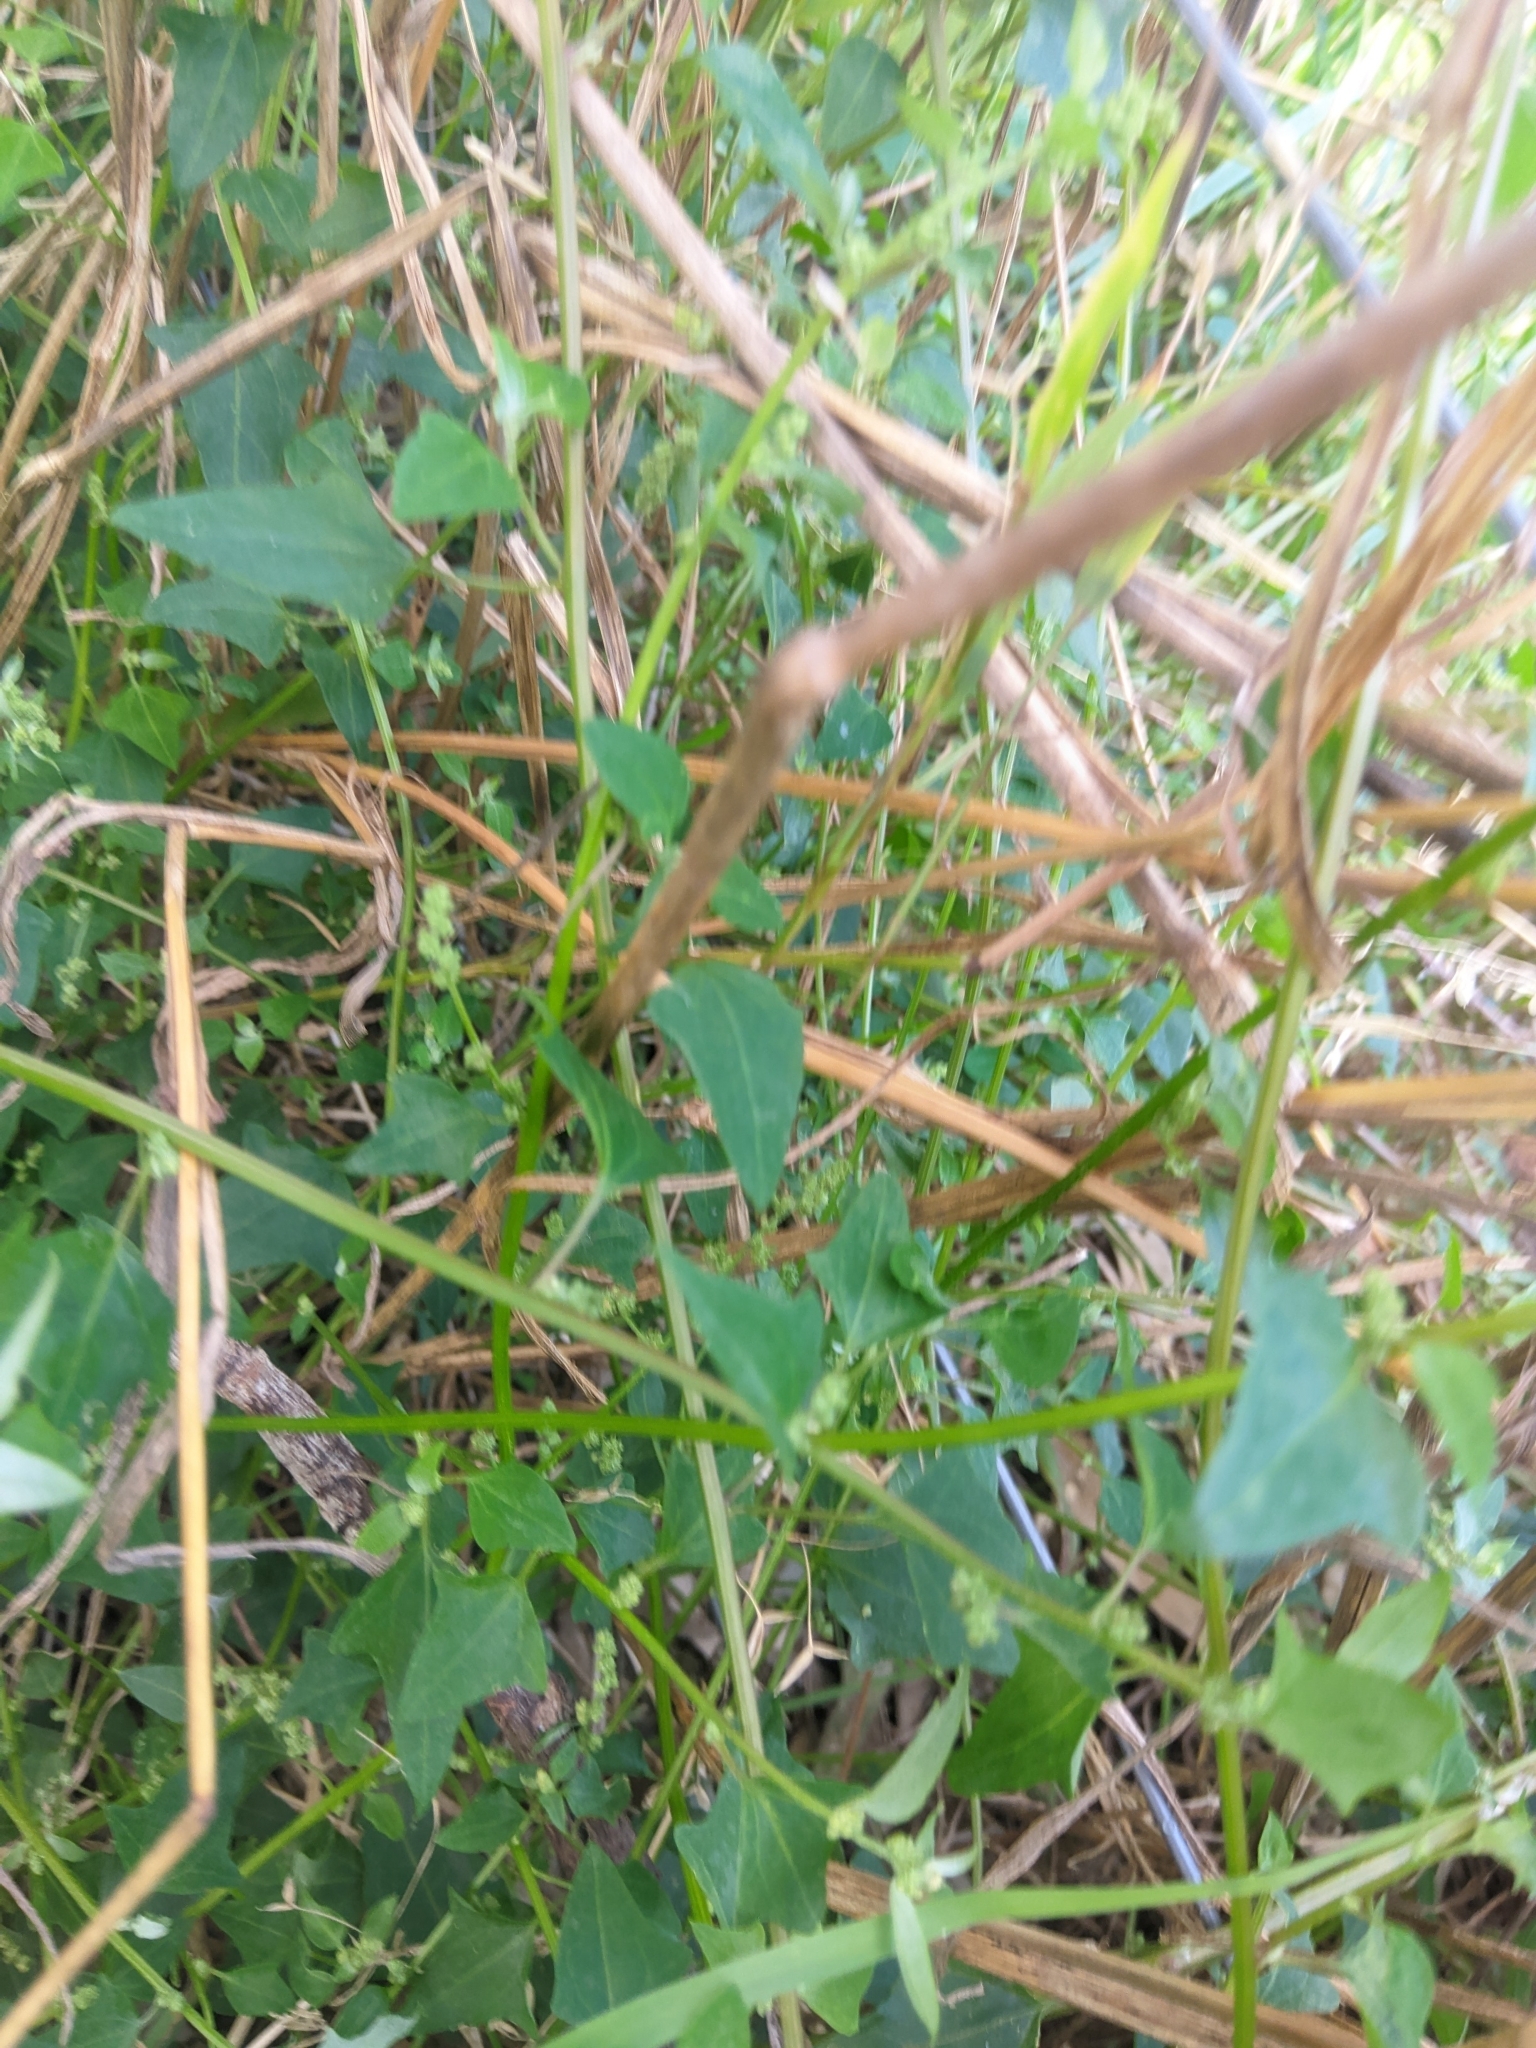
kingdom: Plantae
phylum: Tracheophyta
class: Magnoliopsida
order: Caryophyllales
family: Amaranthaceae
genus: Chenopodium
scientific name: Chenopodium trigonon
